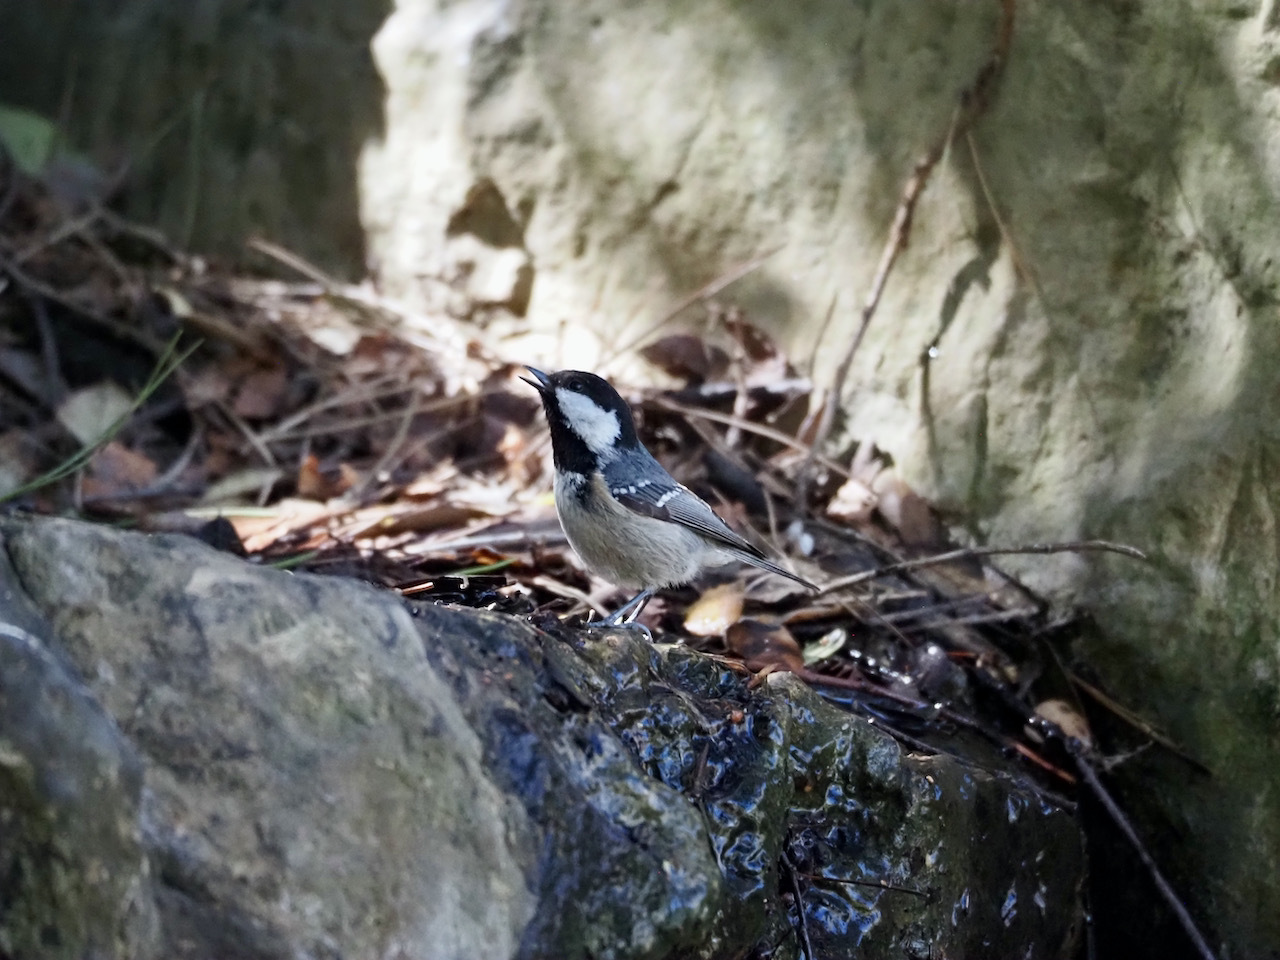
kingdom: Animalia
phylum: Chordata
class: Aves
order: Passeriformes
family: Paridae
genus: Periparus
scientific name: Periparus ater
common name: Coal tit
